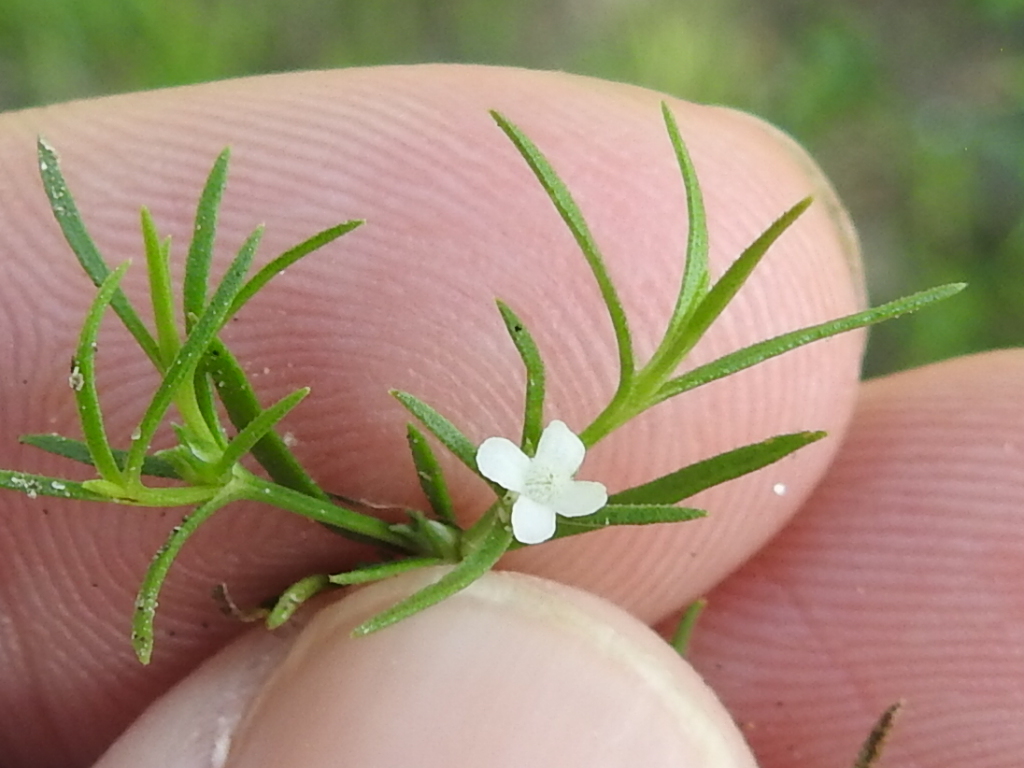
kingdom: Plantae
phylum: Tracheophyta
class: Magnoliopsida
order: Lamiales
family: Tetrachondraceae
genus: Polypremum
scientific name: Polypremum procumbens
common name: Juniper-leaf
